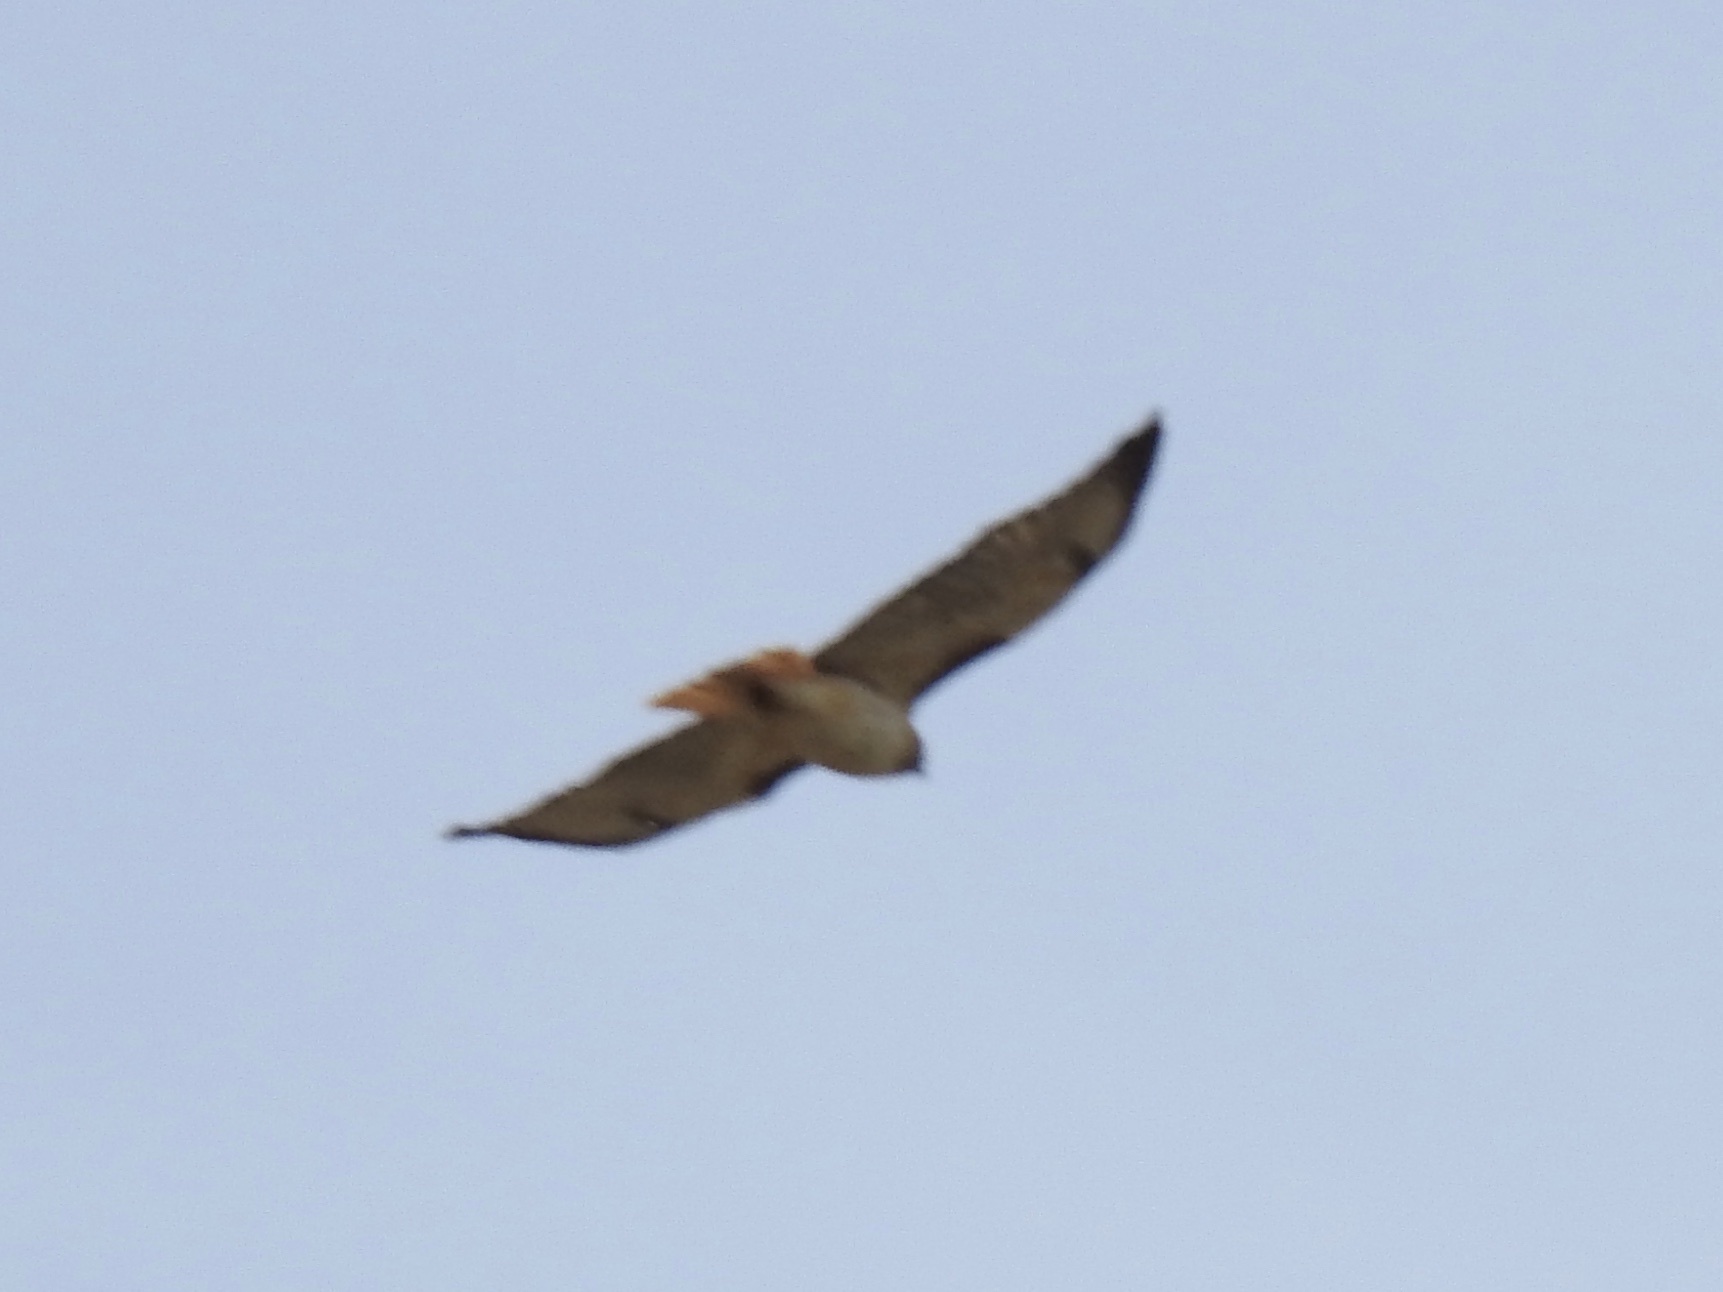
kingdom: Animalia
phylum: Chordata
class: Aves
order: Accipitriformes
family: Accipitridae
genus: Buteo
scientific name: Buteo jamaicensis
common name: Red-tailed hawk
